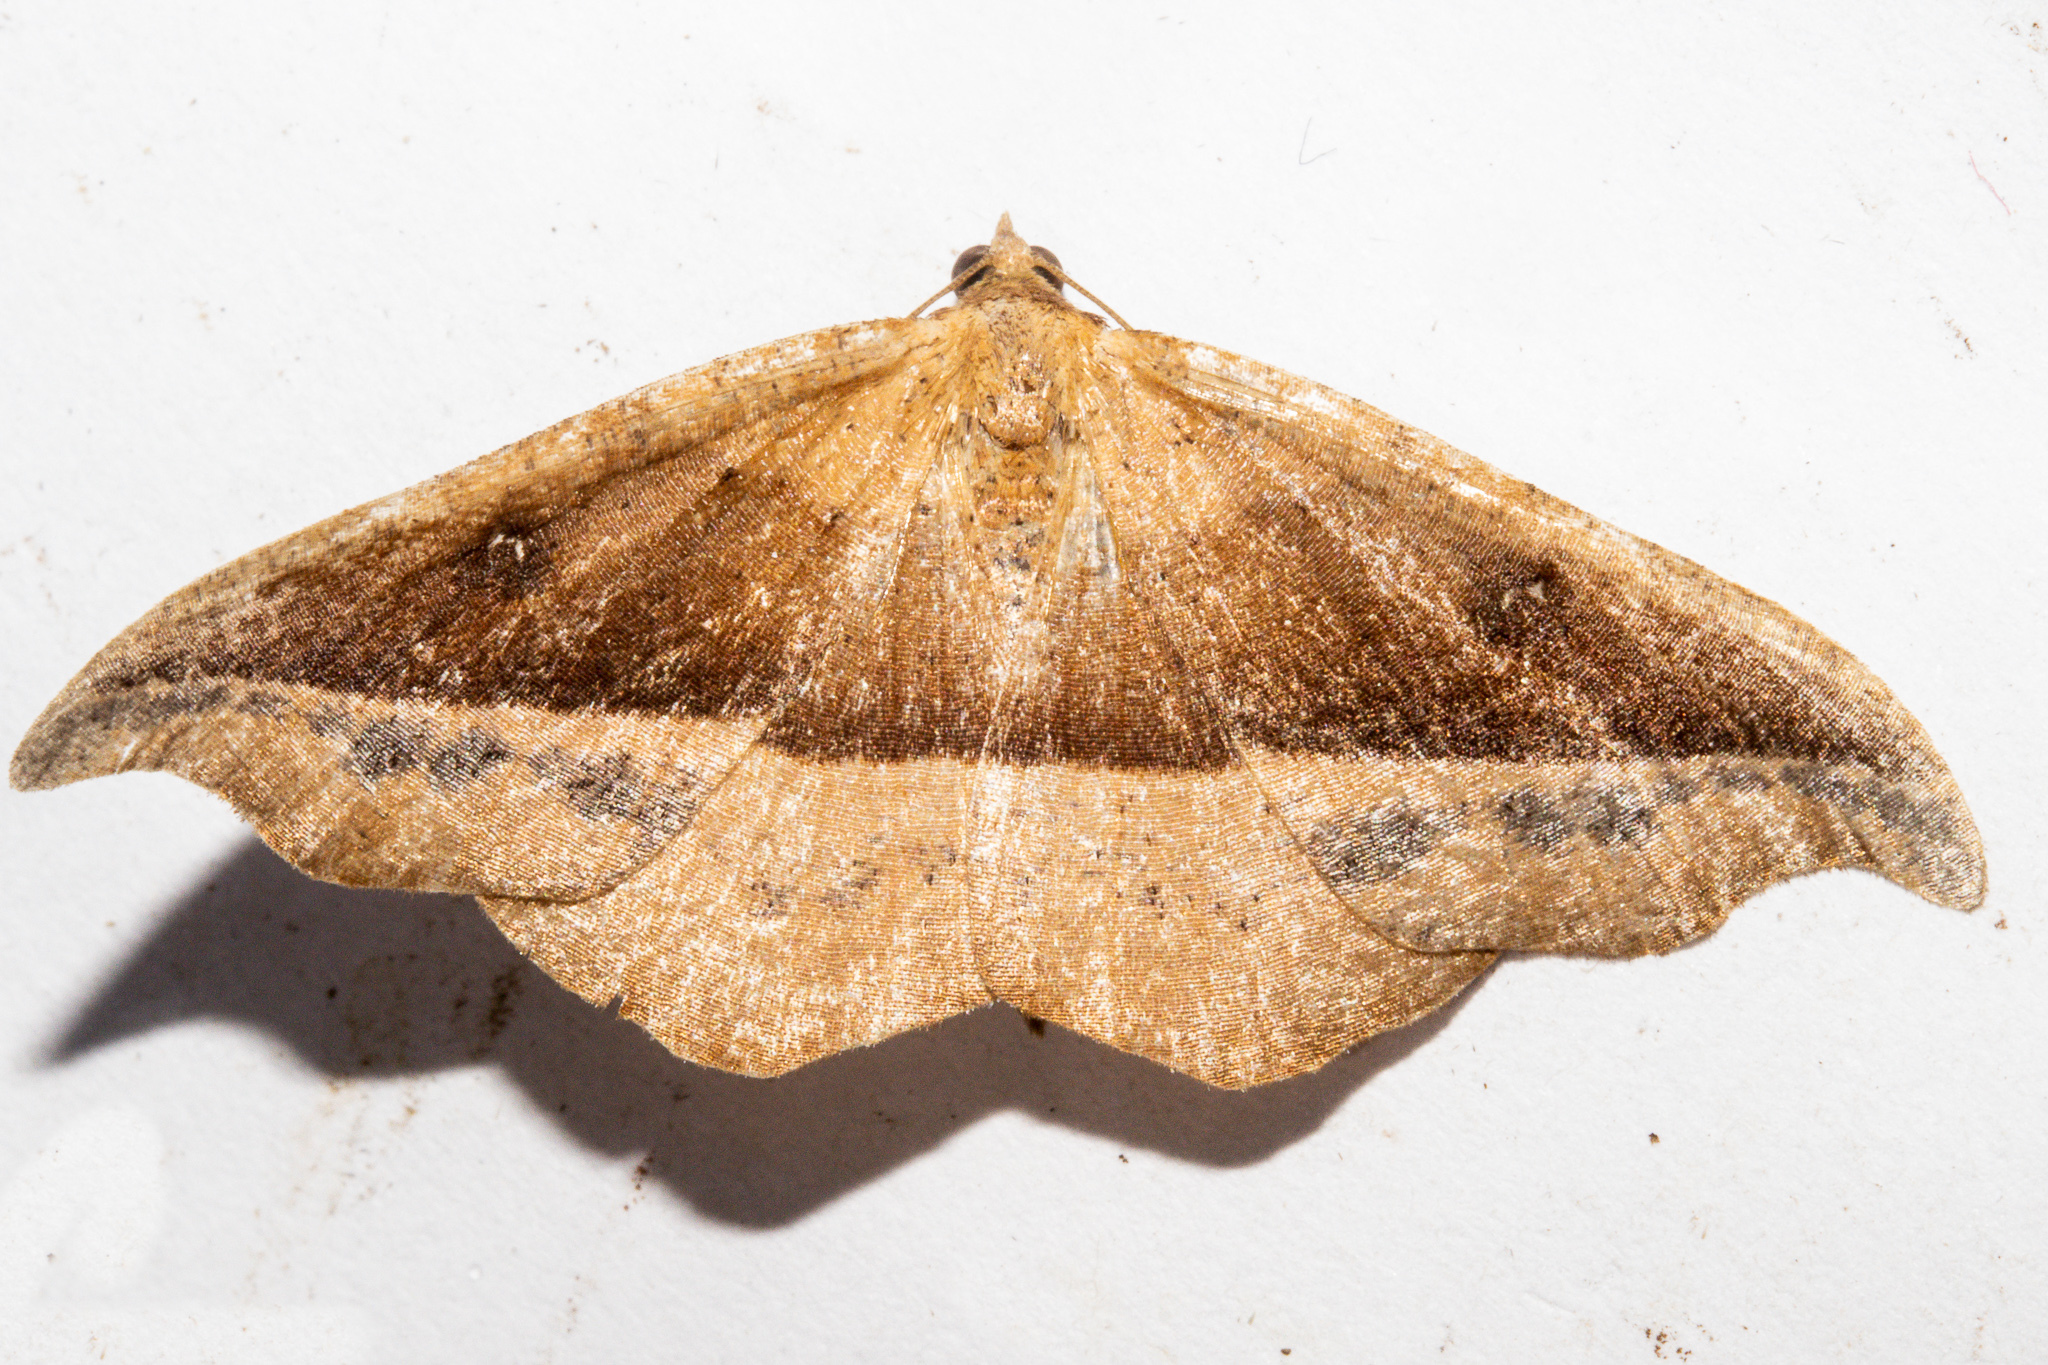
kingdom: Animalia
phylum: Arthropoda
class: Insecta
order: Lepidoptera
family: Geometridae
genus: Sarisa
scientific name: Sarisa muriferata
